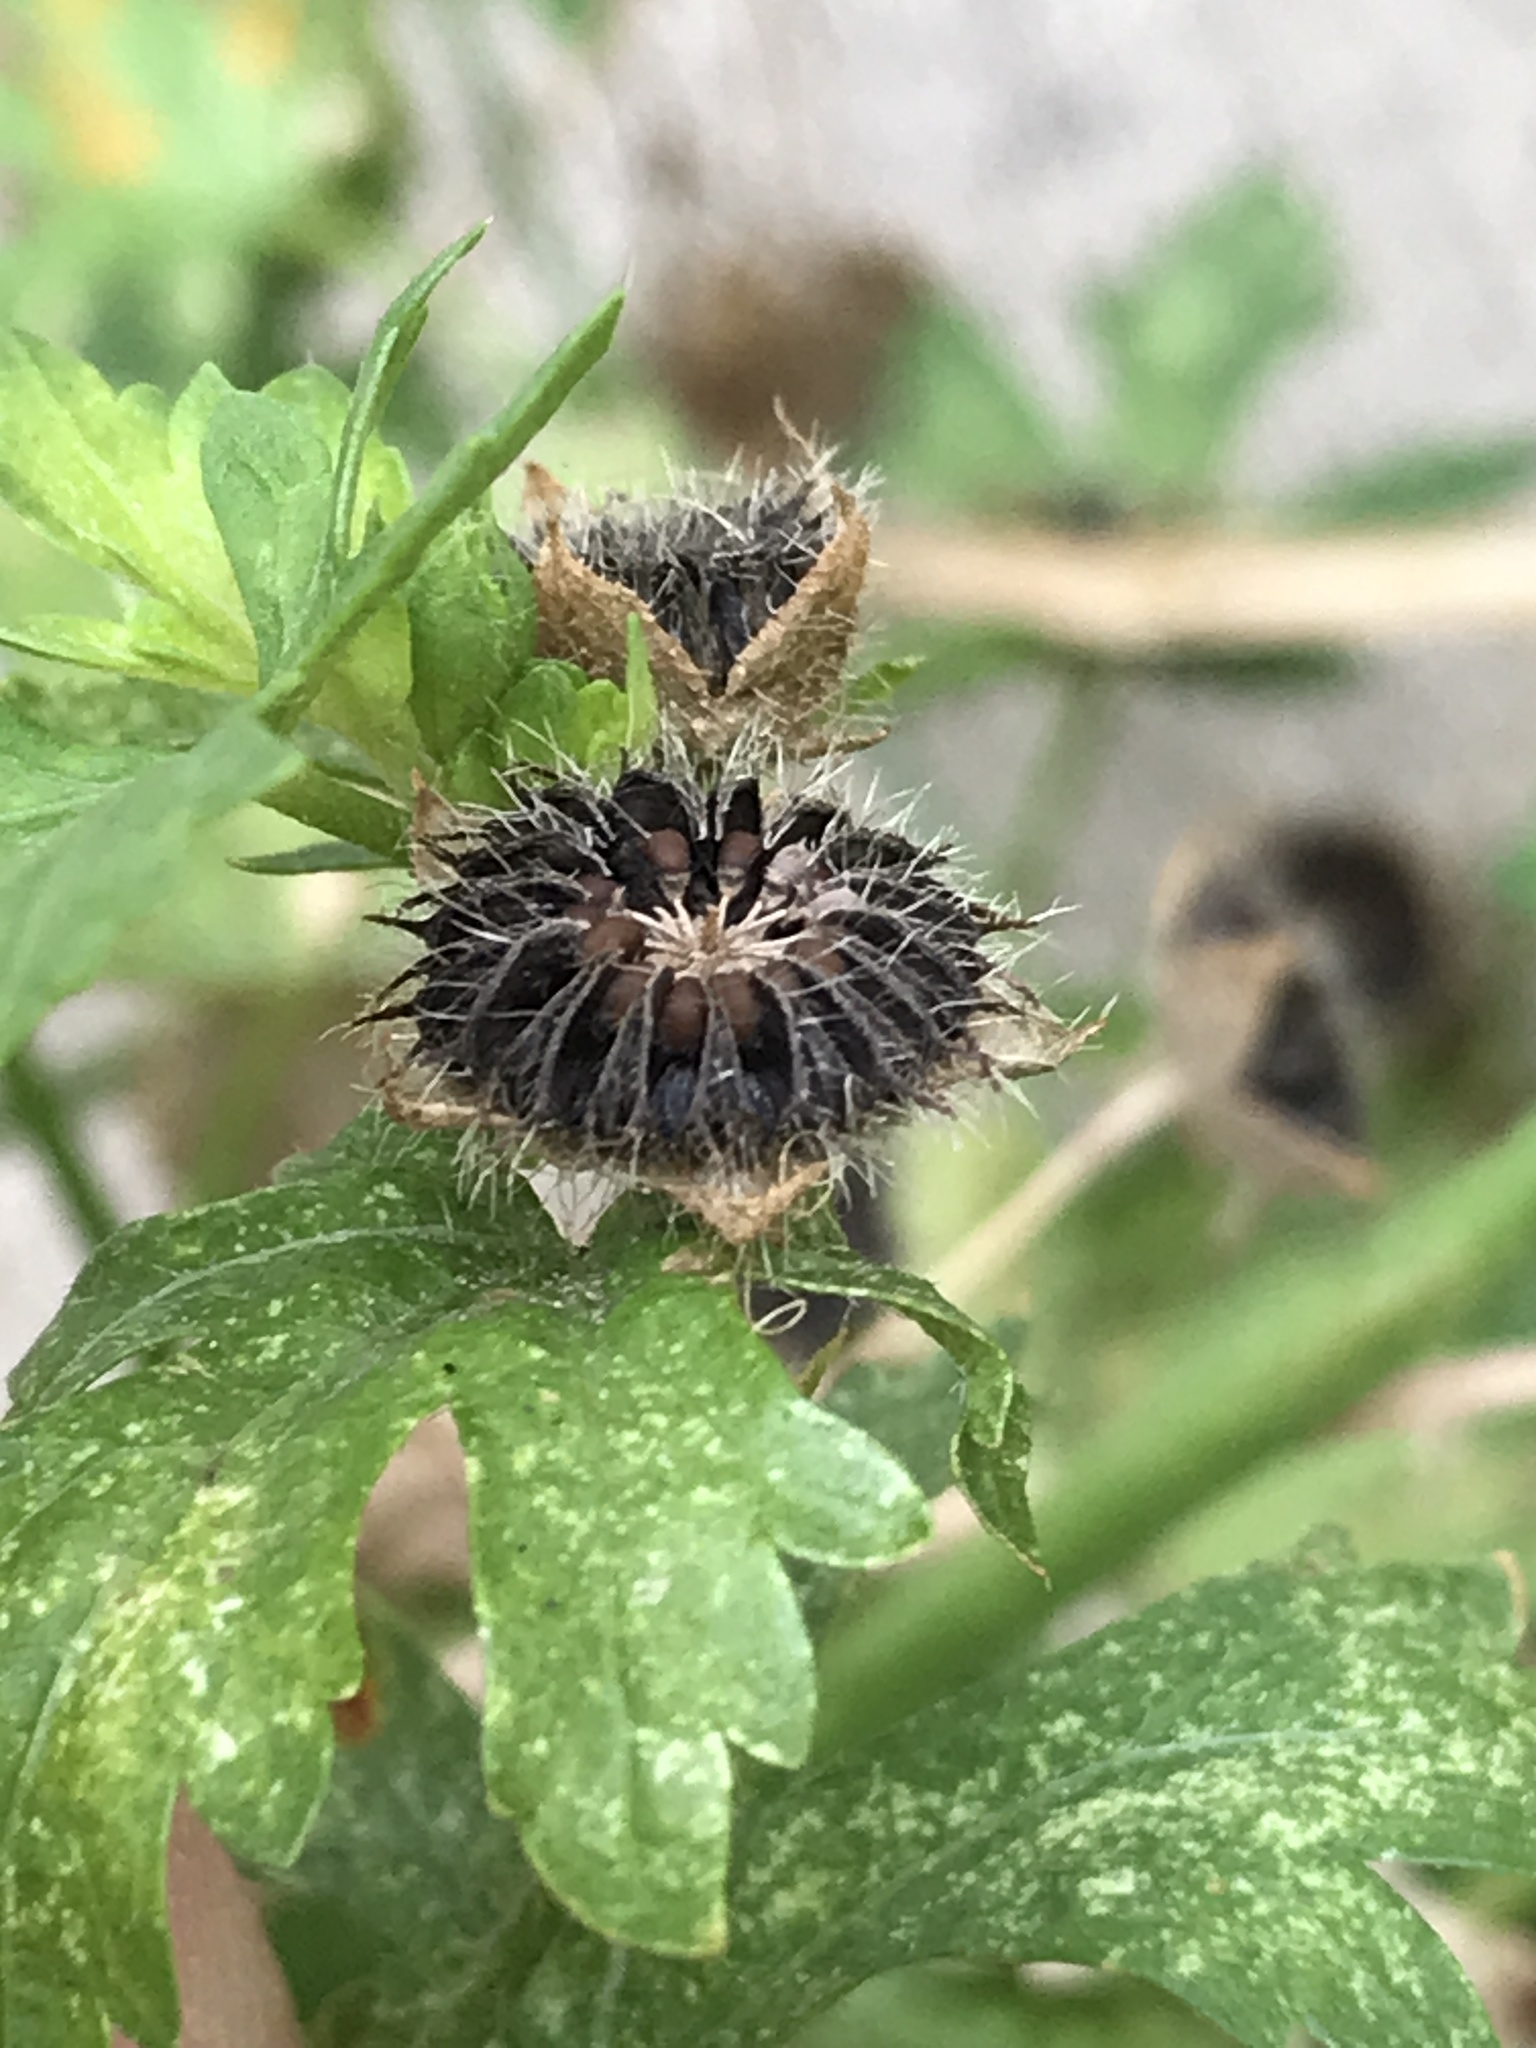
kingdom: Plantae
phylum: Tracheophyta
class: Magnoliopsida
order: Malvales
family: Malvaceae
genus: Modiola
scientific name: Modiola caroliniana
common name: Carolina bristlemallow
